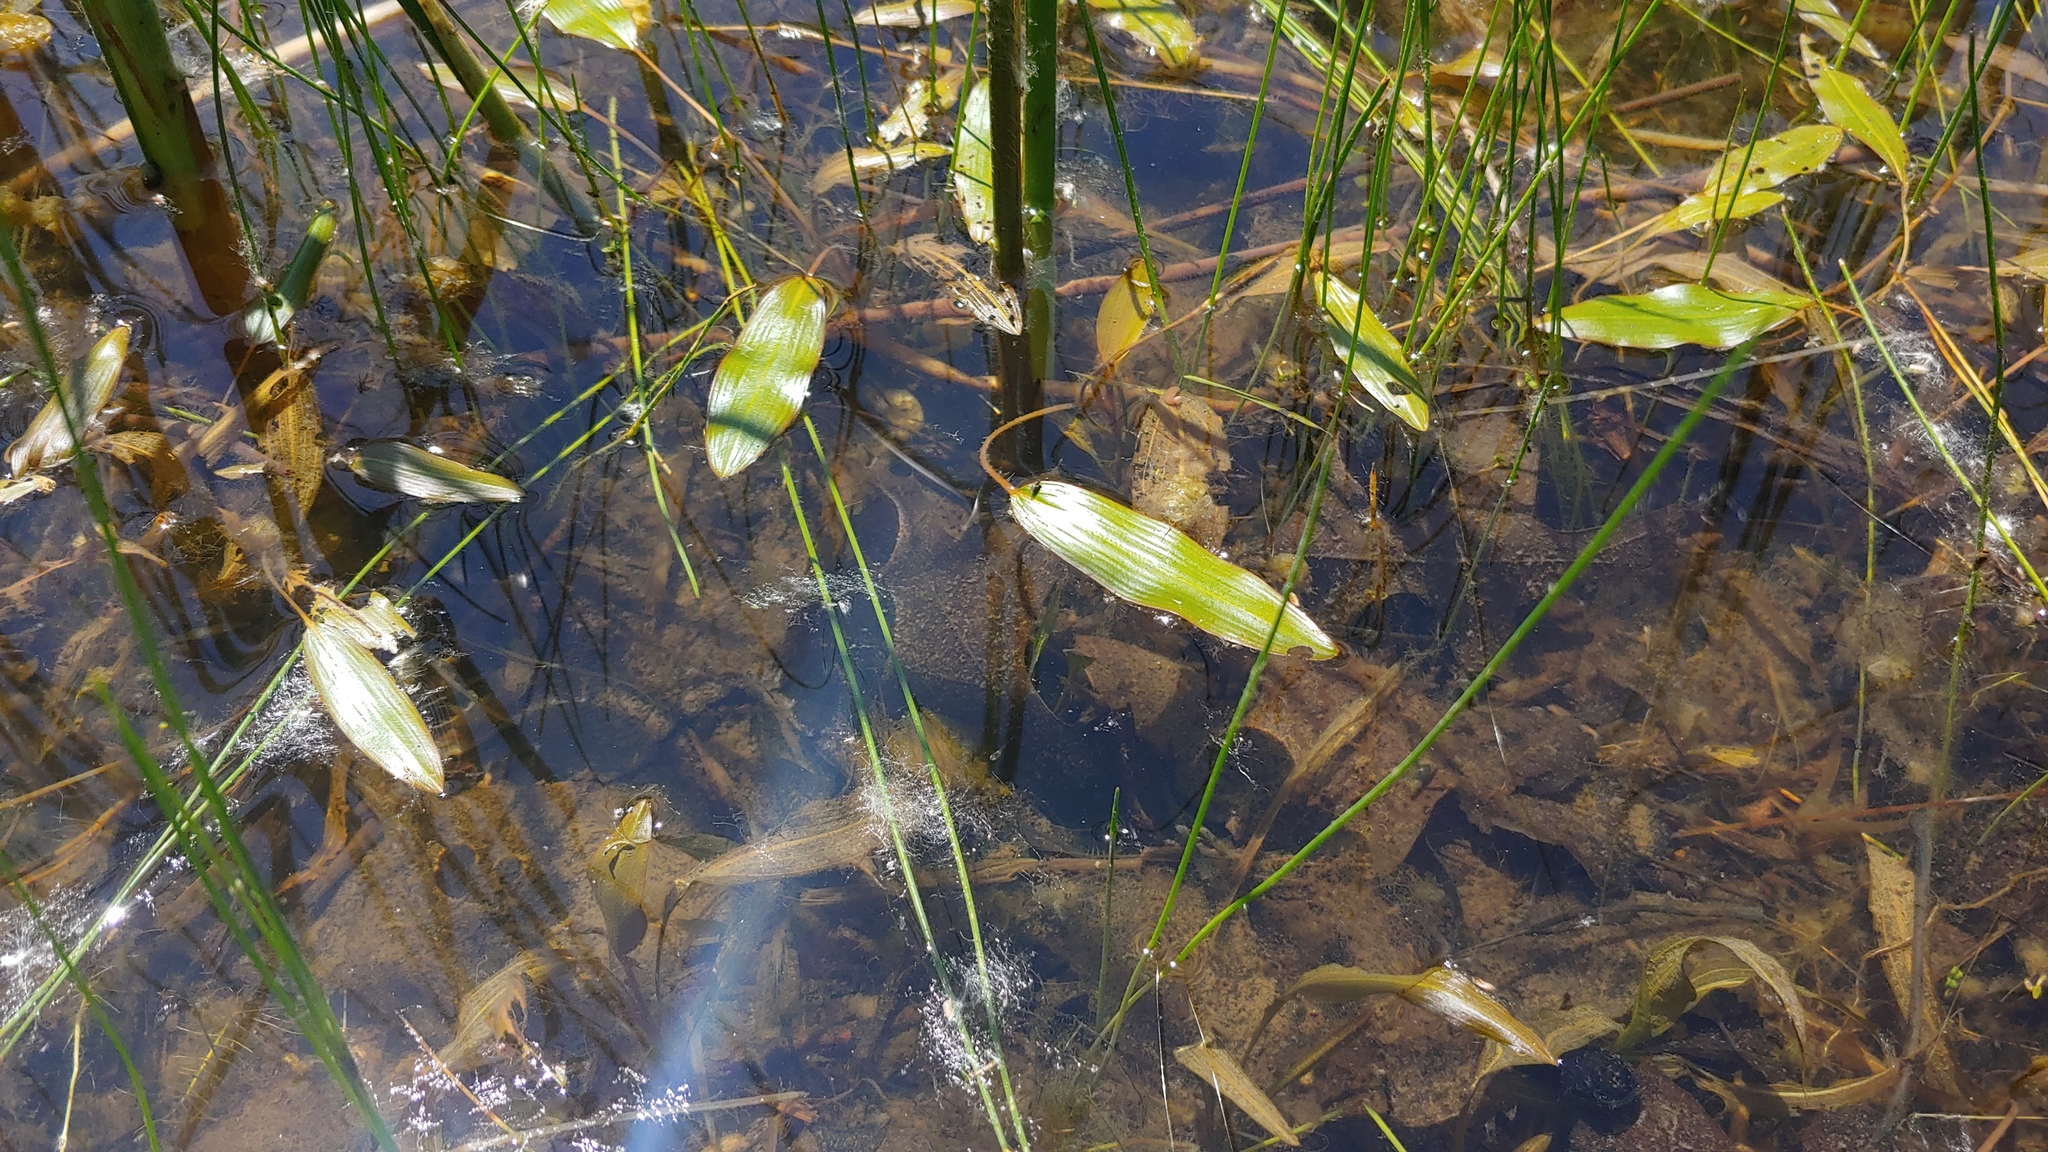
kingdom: Plantae
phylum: Tracheophyta
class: Liliopsida
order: Alismatales
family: Potamogetonaceae
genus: Potamogeton
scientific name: Potamogeton nodosus
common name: Loddon pondweed
